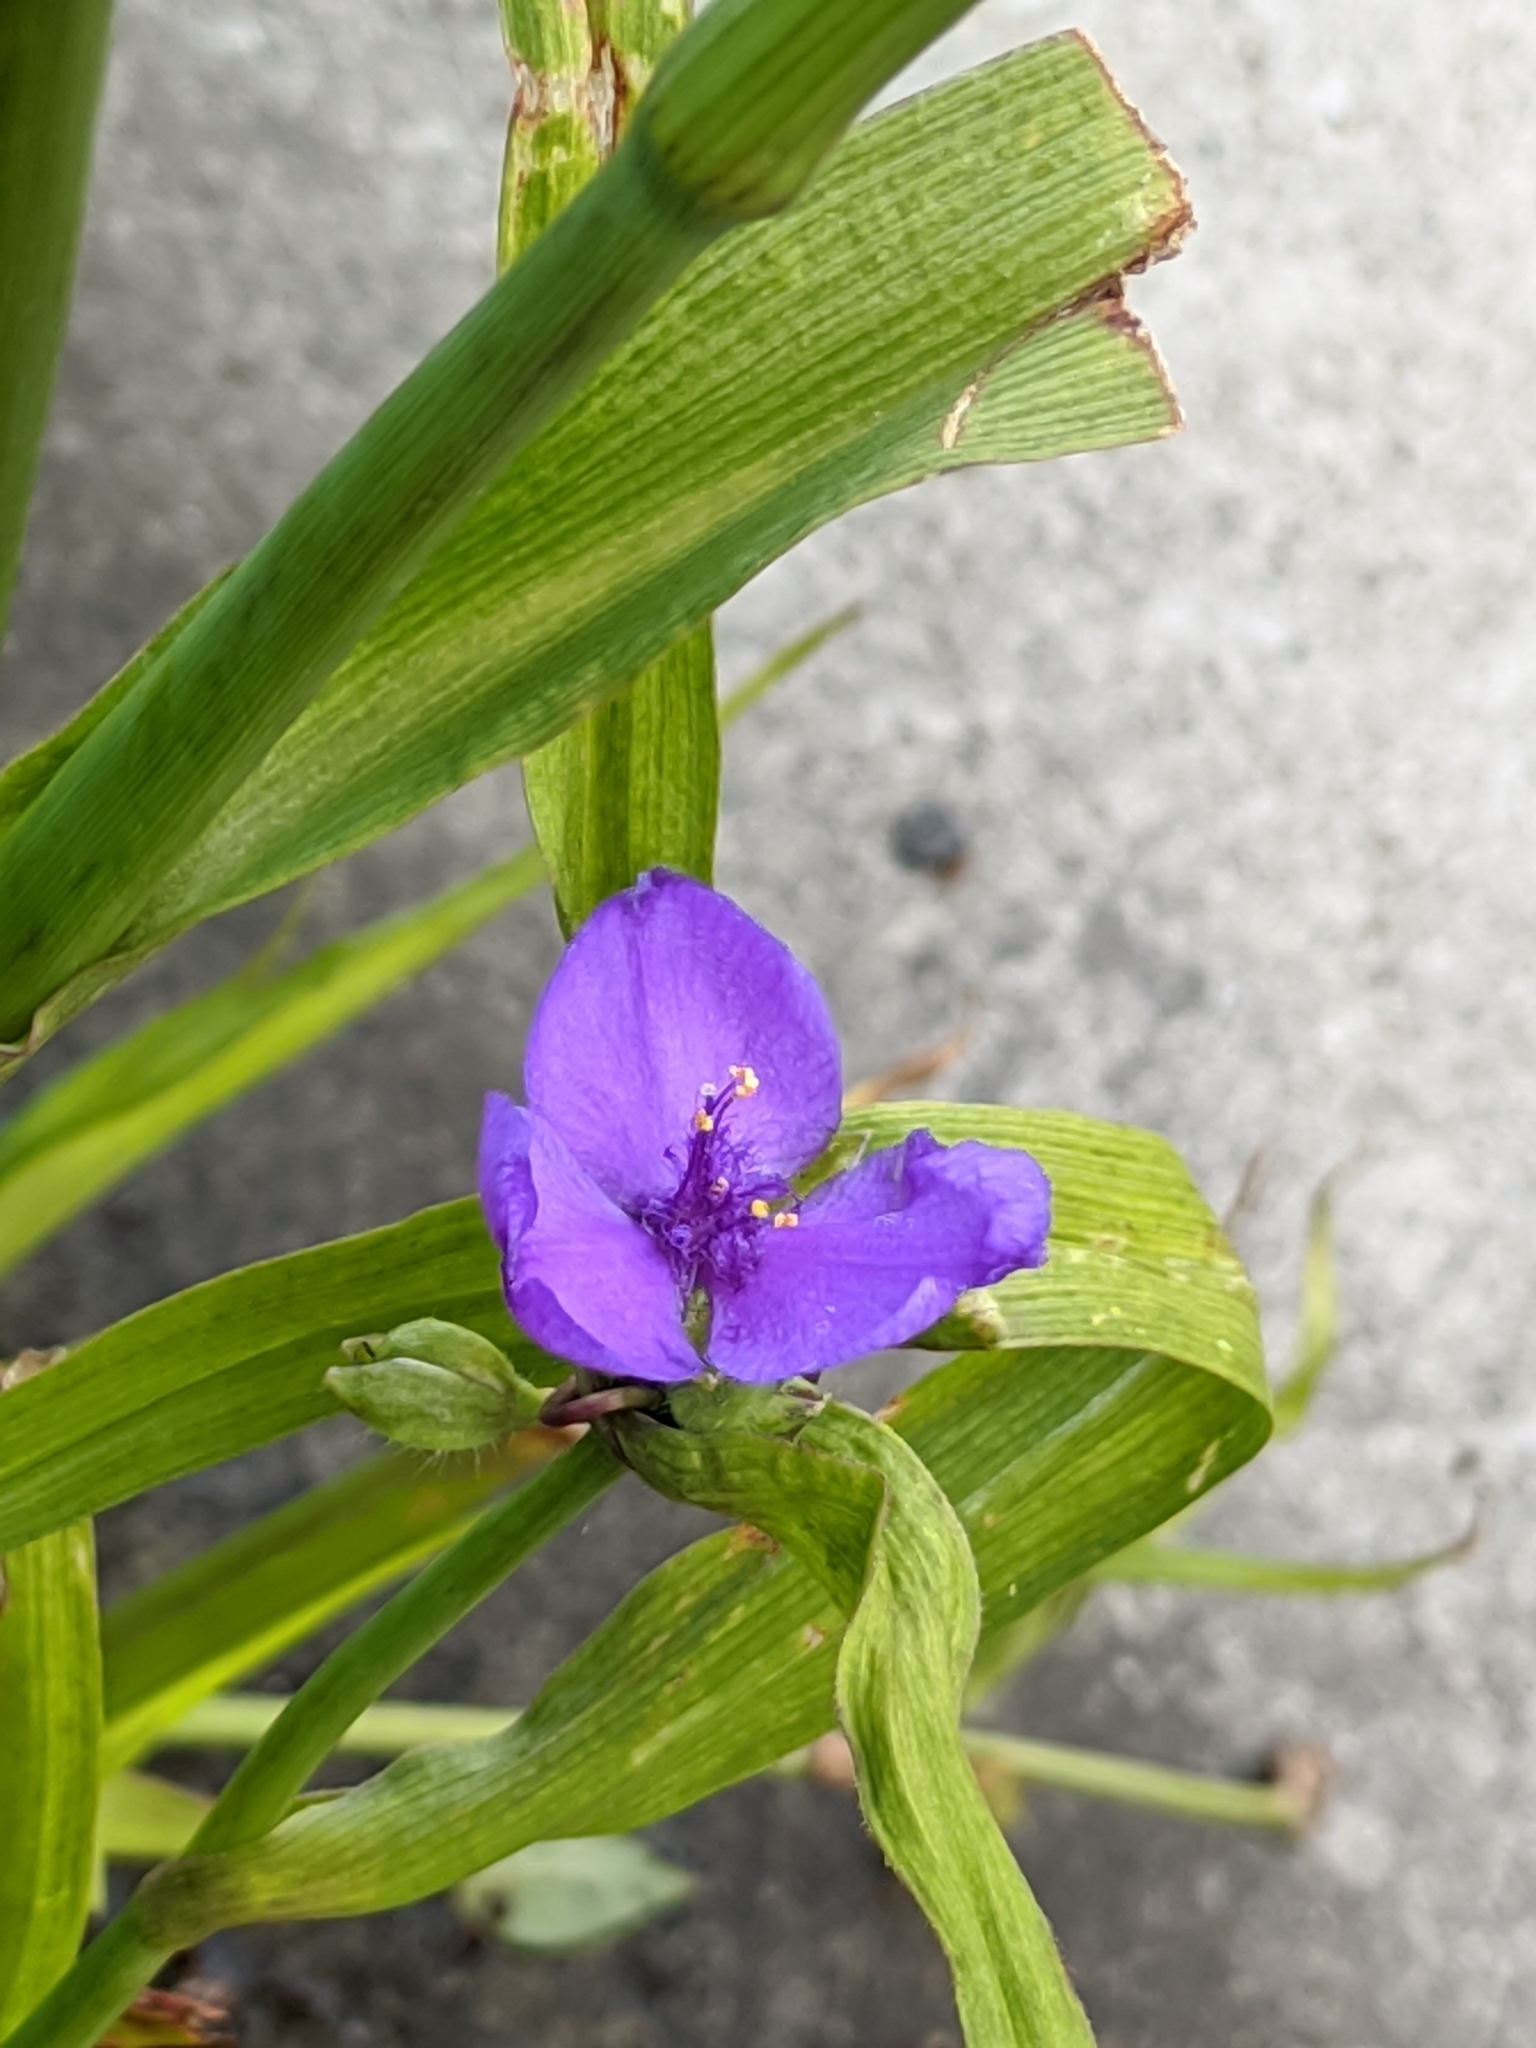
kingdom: Plantae
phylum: Tracheophyta
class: Liliopsida
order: Commelinales
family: Commelinaceae
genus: Tradescantia
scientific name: Tradescantia virginiana
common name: Spiderwort
